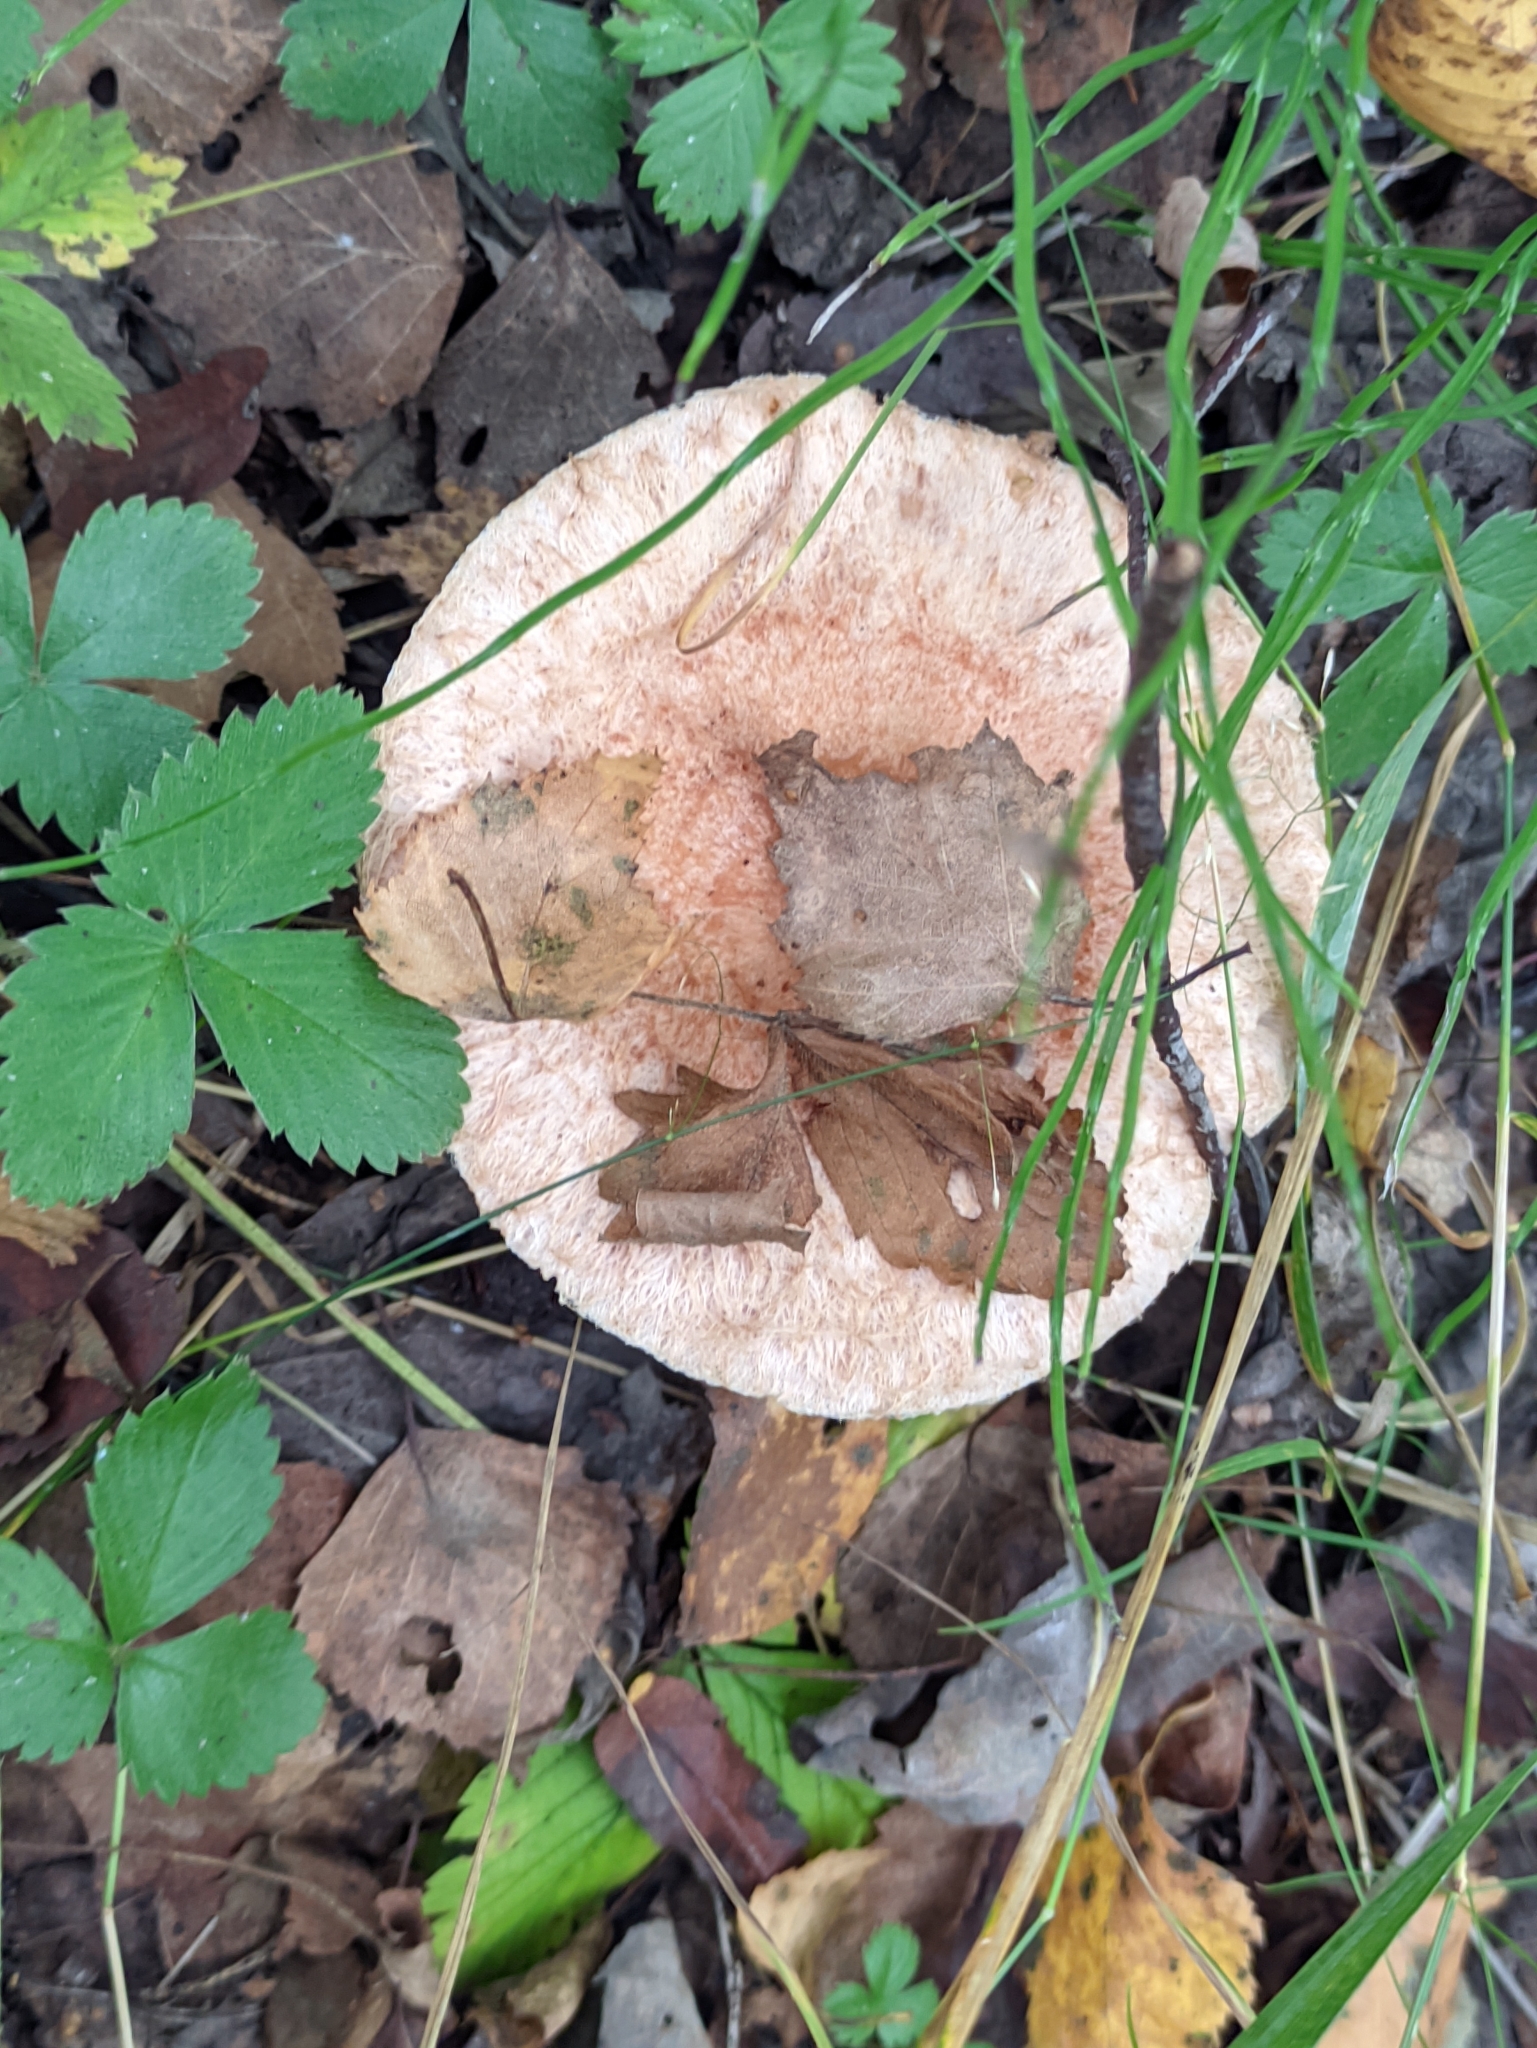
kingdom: Fungi
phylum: Basidiomycota
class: Agaricomycetes
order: Russulales
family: Russulaceae
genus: Lactarius
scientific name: Lactarius torminosus
